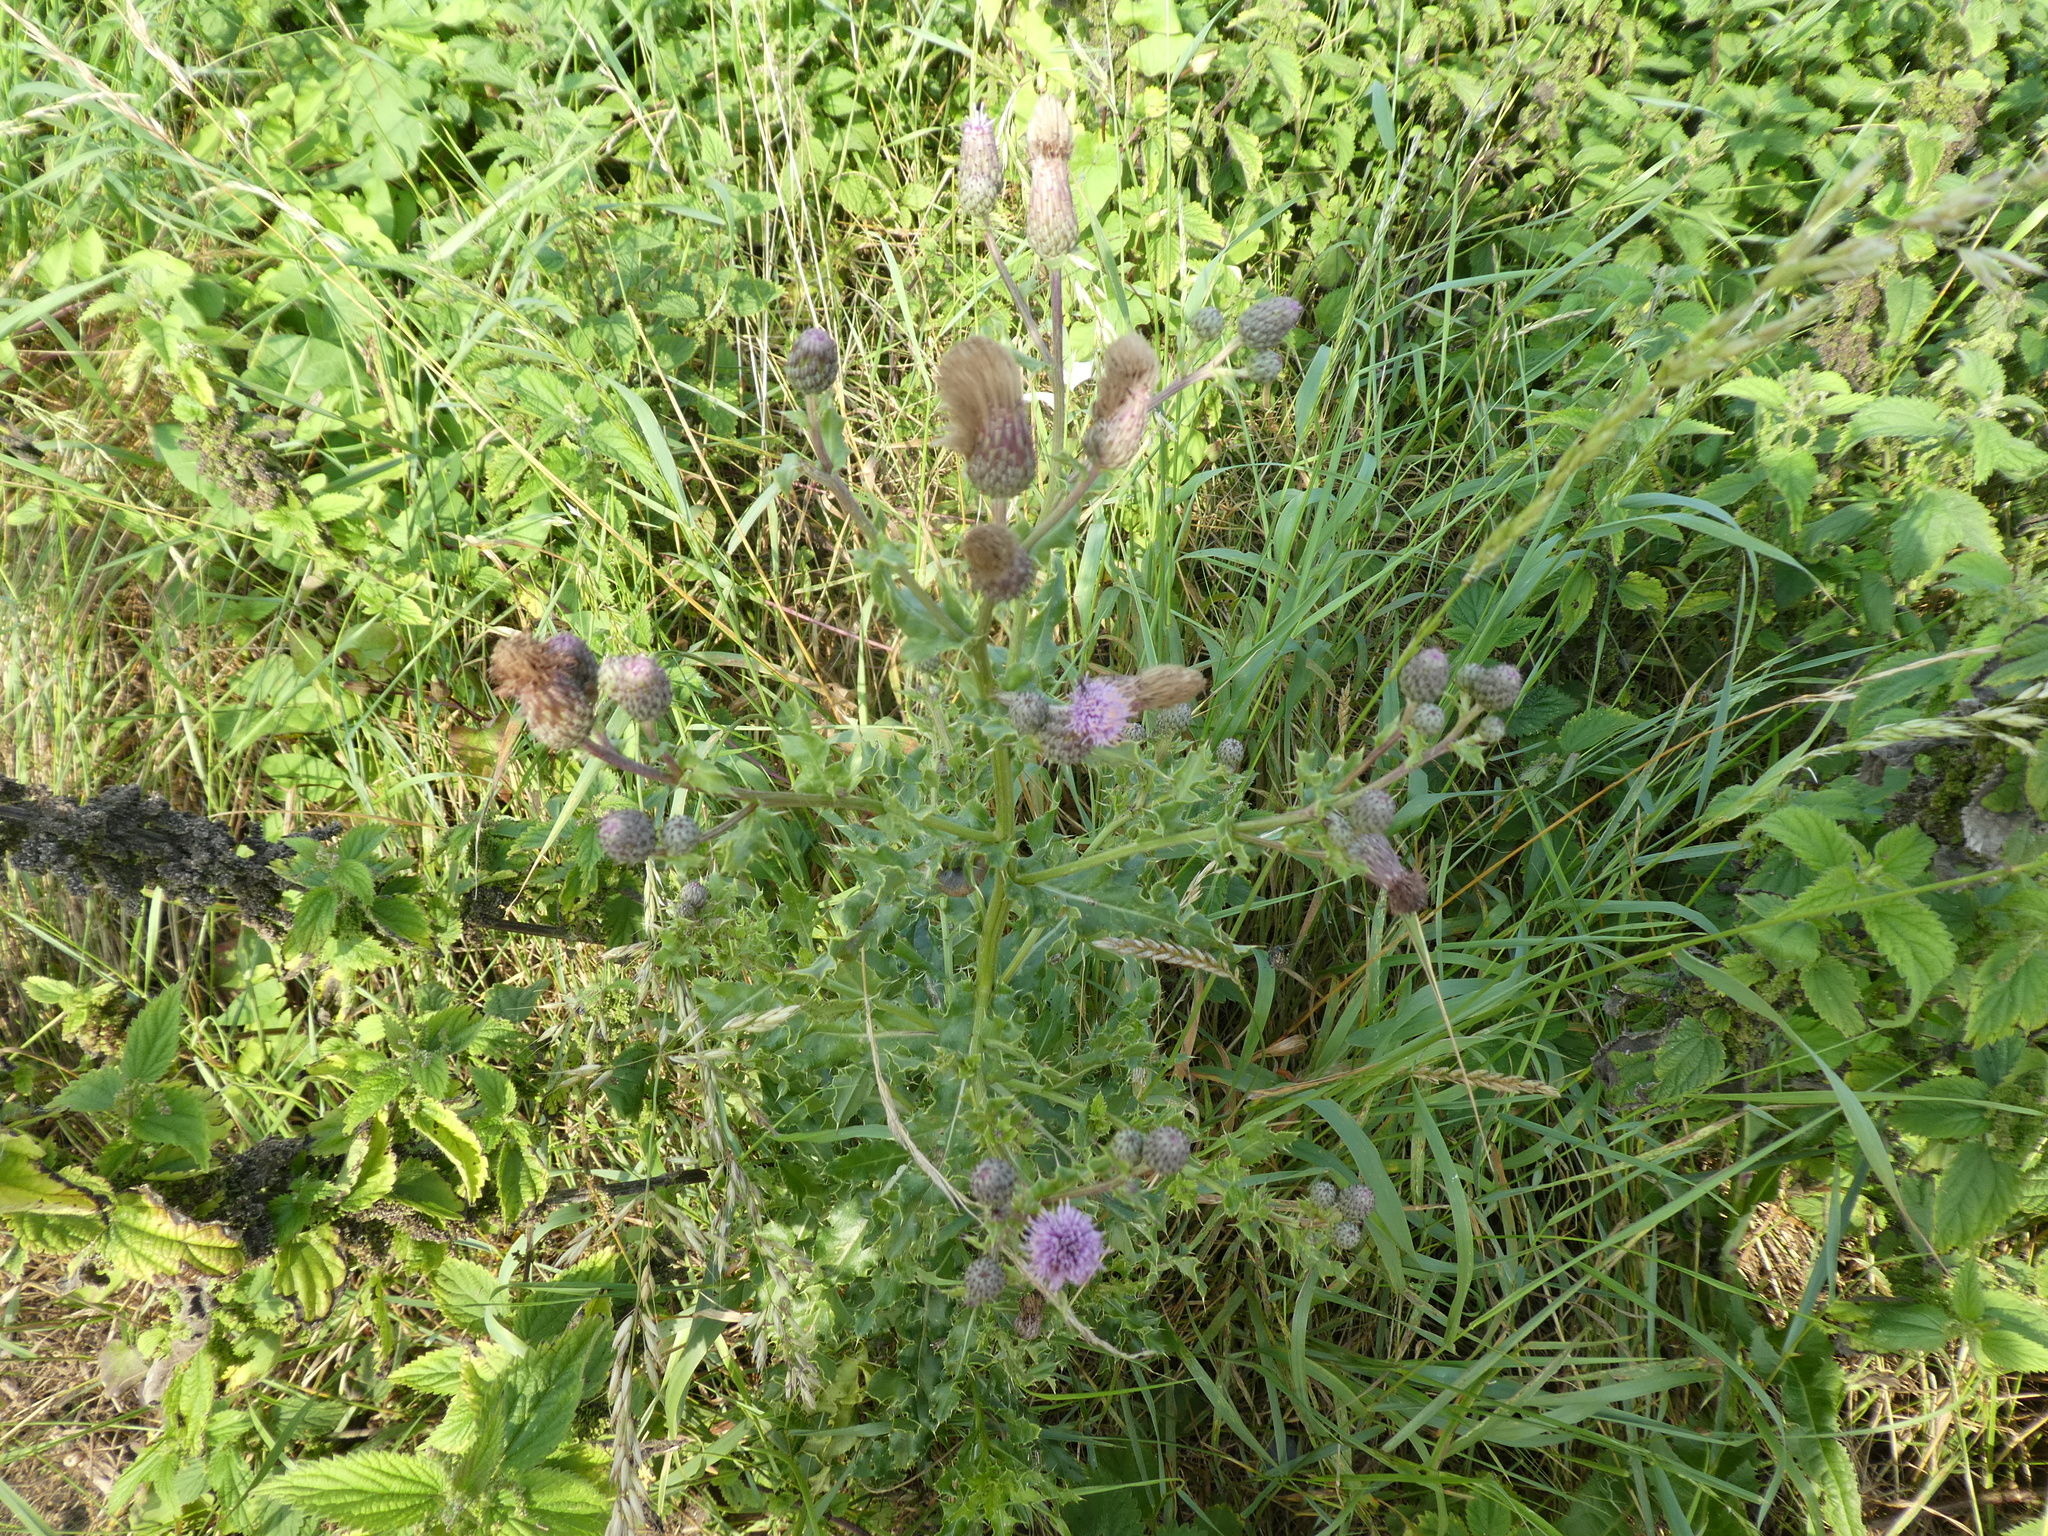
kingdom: Plantae
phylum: Tracheophyta
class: Magnoliopsida
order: Asterales
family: Asteraceae
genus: Cirsium
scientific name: Cirsium arvense
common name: Creeping thistle
